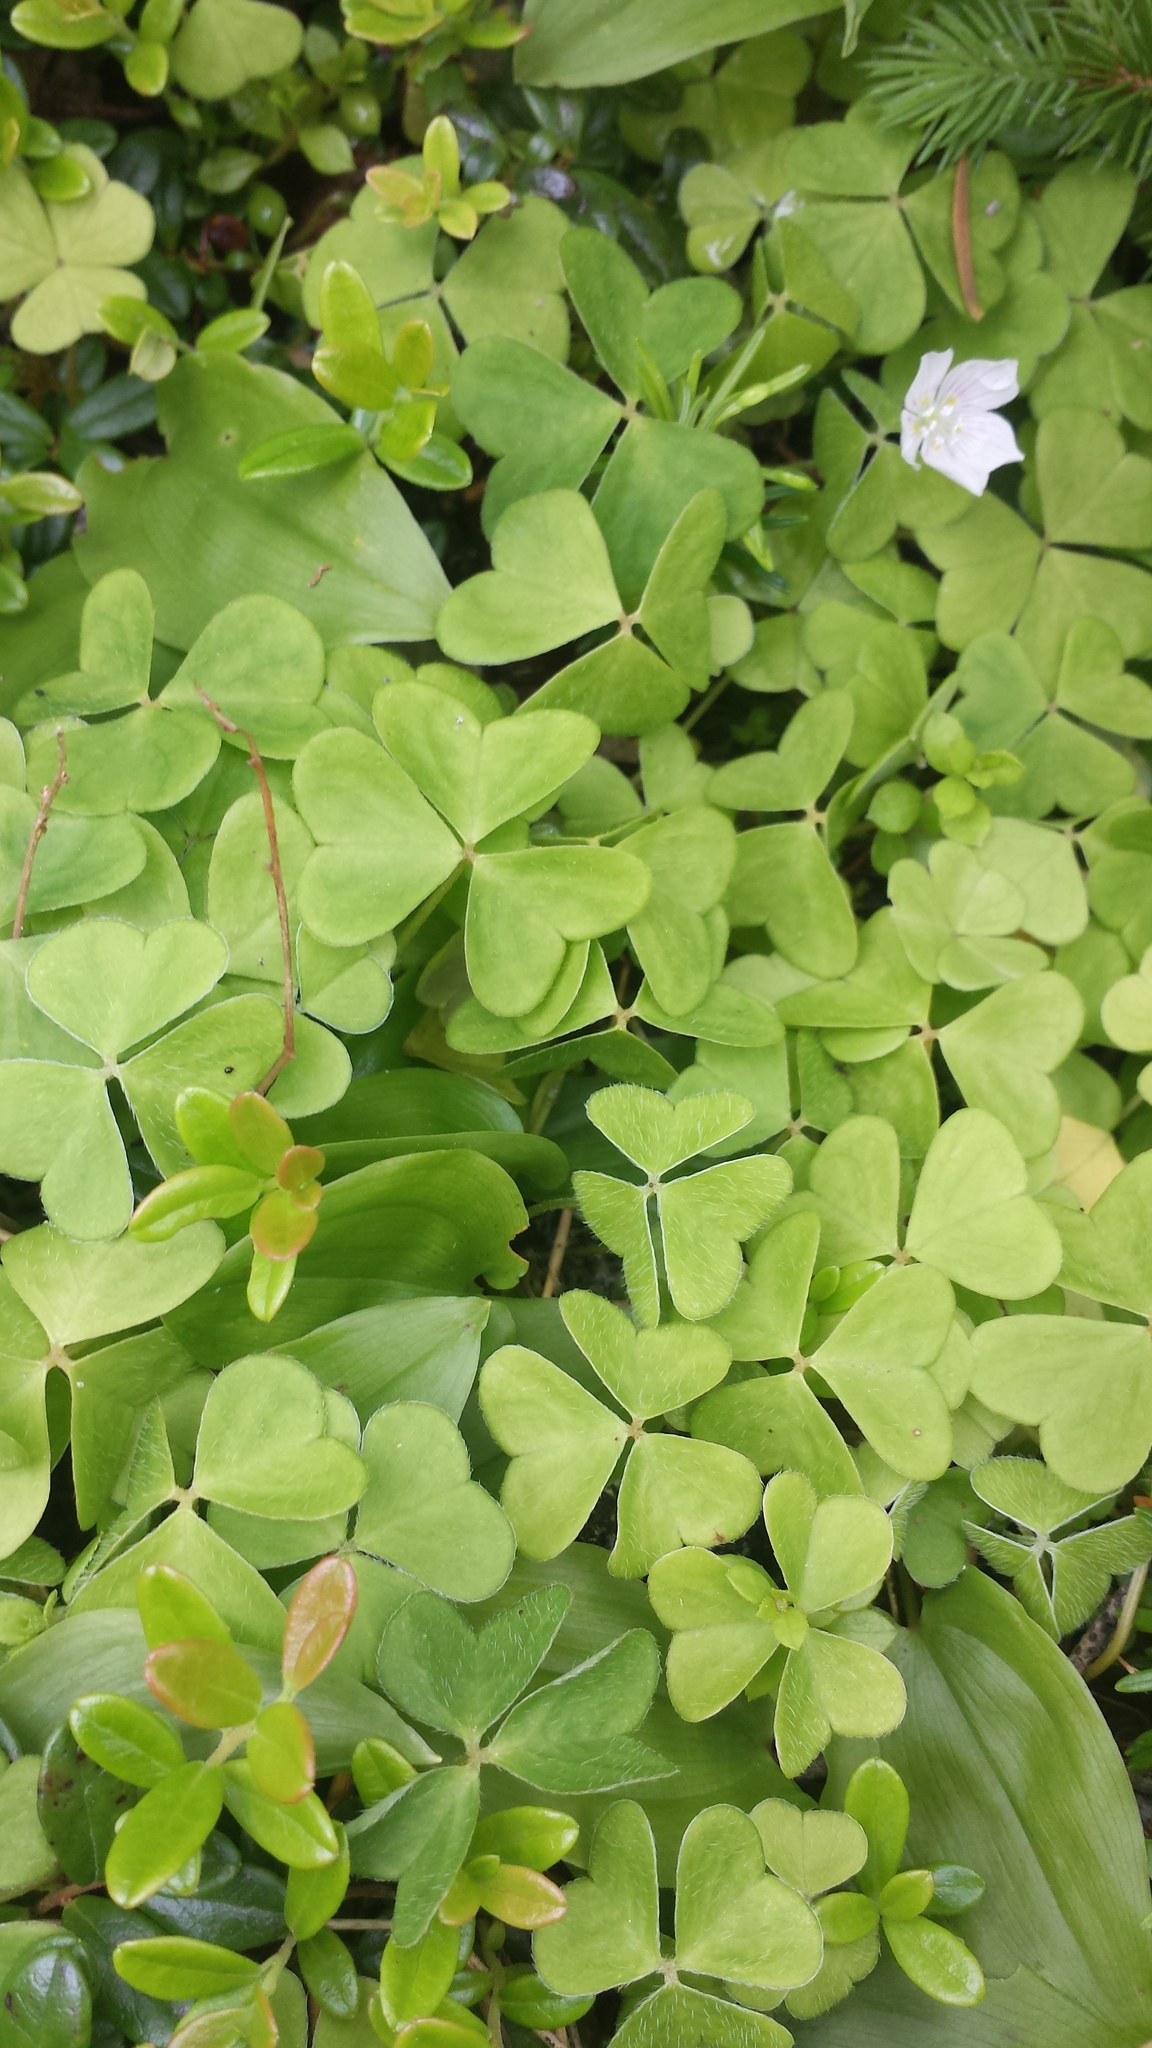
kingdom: Plantae
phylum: Tracheophyta
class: Magnoliopsida
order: Oxalidales
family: Oxalidaceae
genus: Oxalis
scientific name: Oxalis montana
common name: American wood-sorrel
